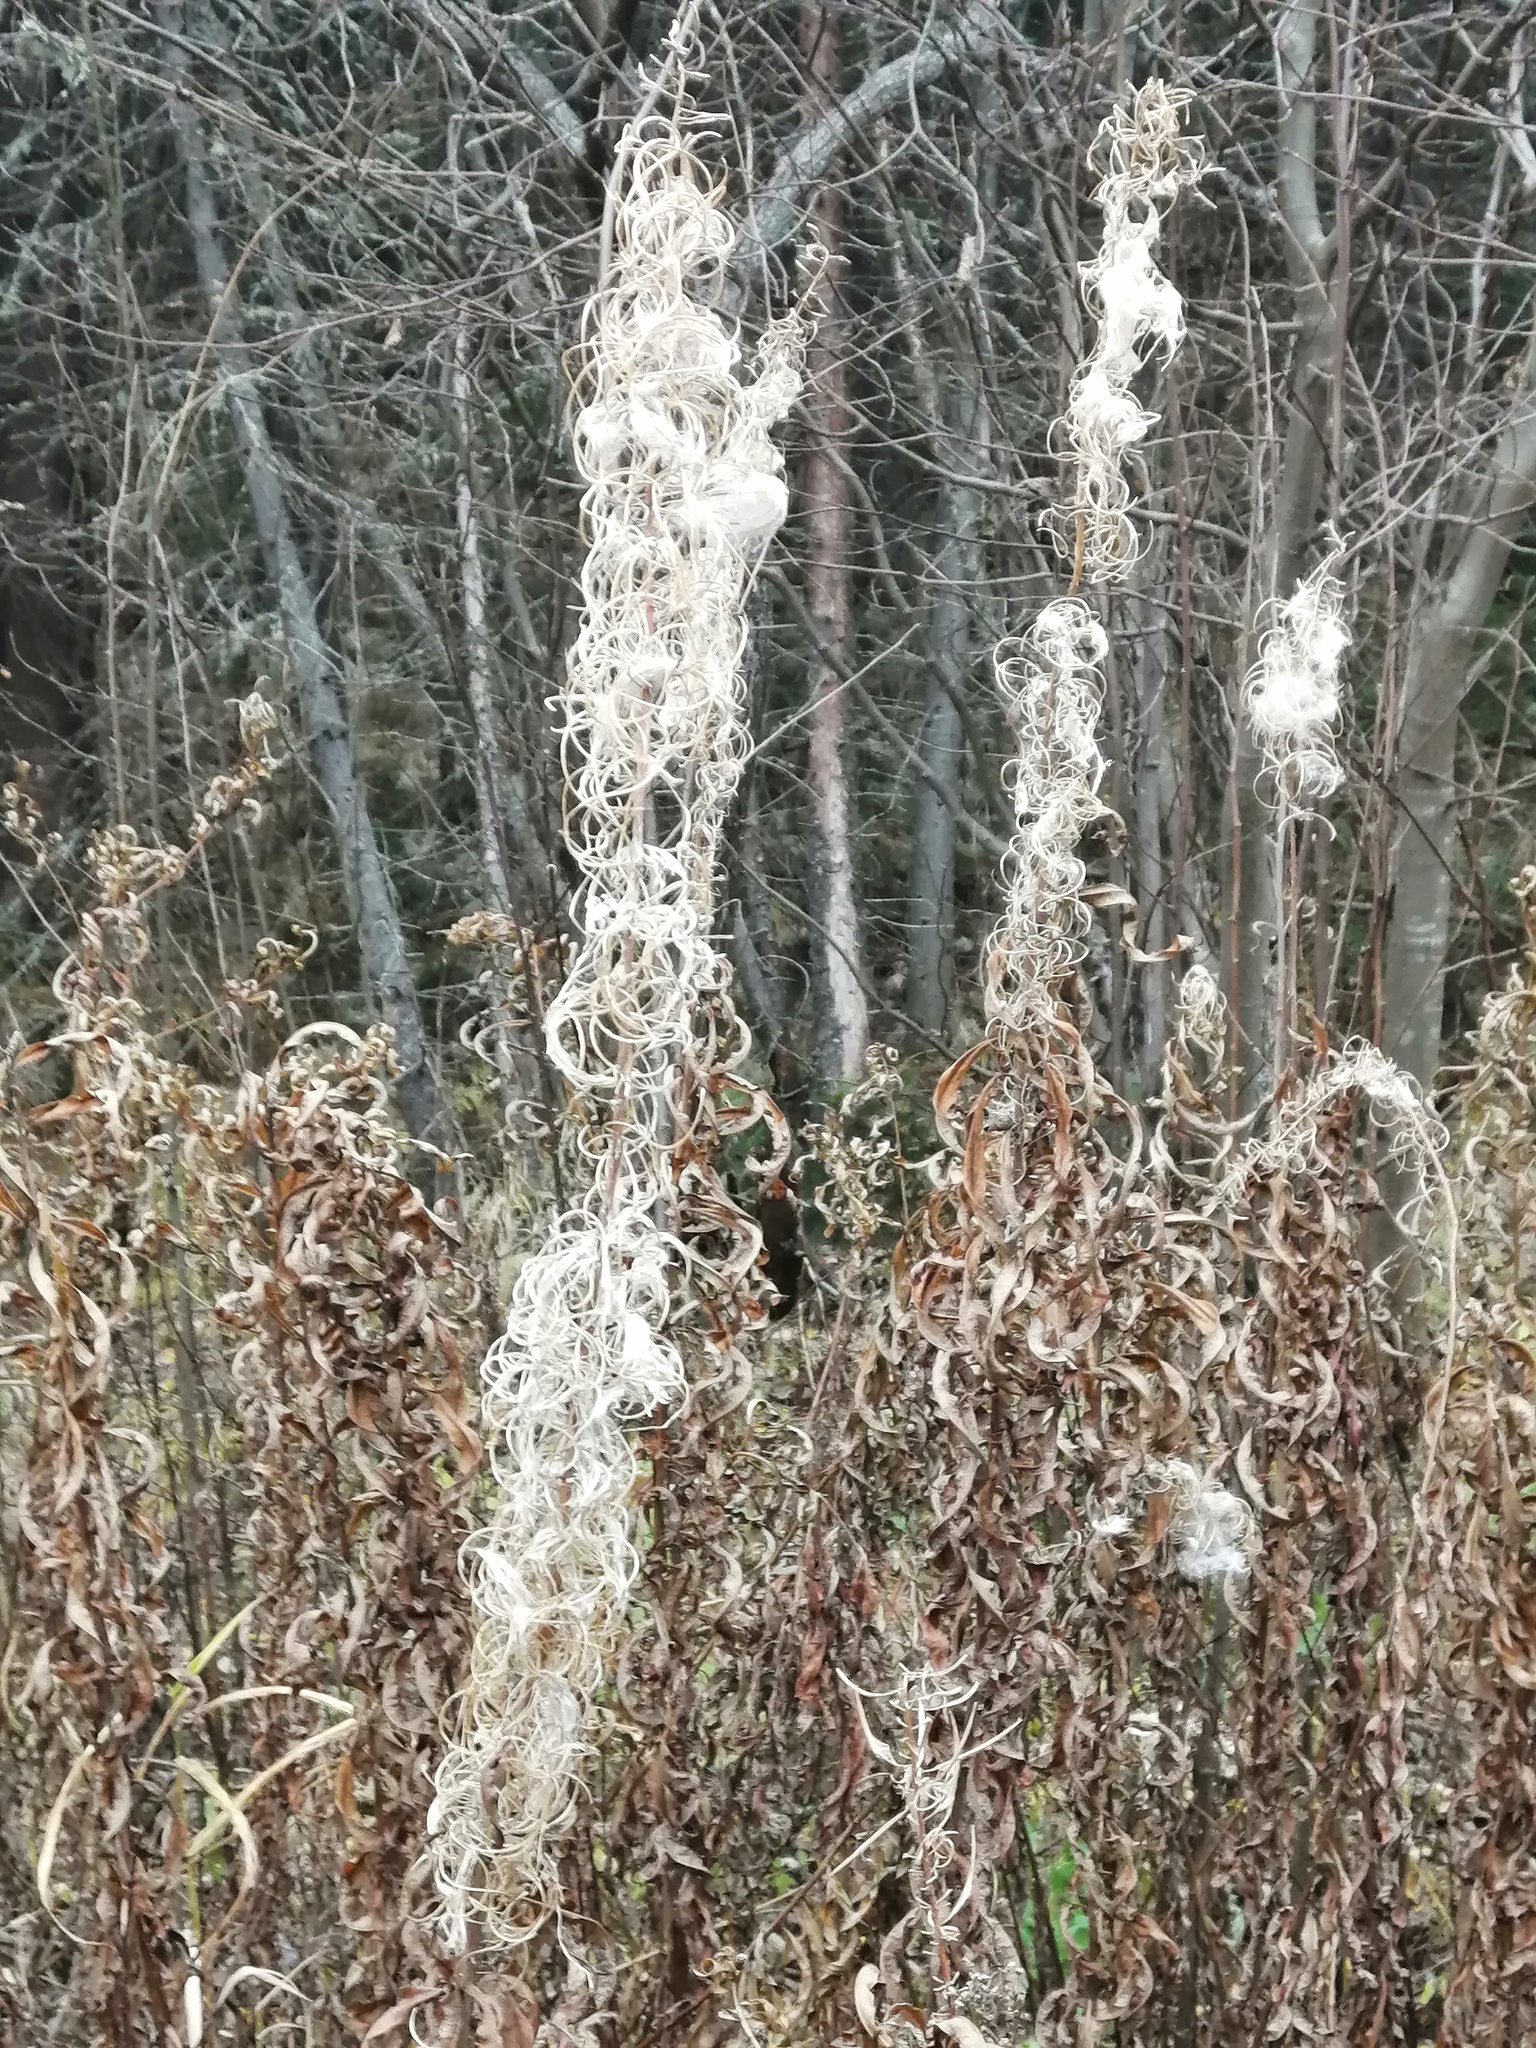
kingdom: Plantae
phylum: Tracheophyta
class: Magnoliopsida
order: Myrtales
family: Onagraceae
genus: Chamaenerion
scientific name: Chamaenerion angustifolium
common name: Fireweed
